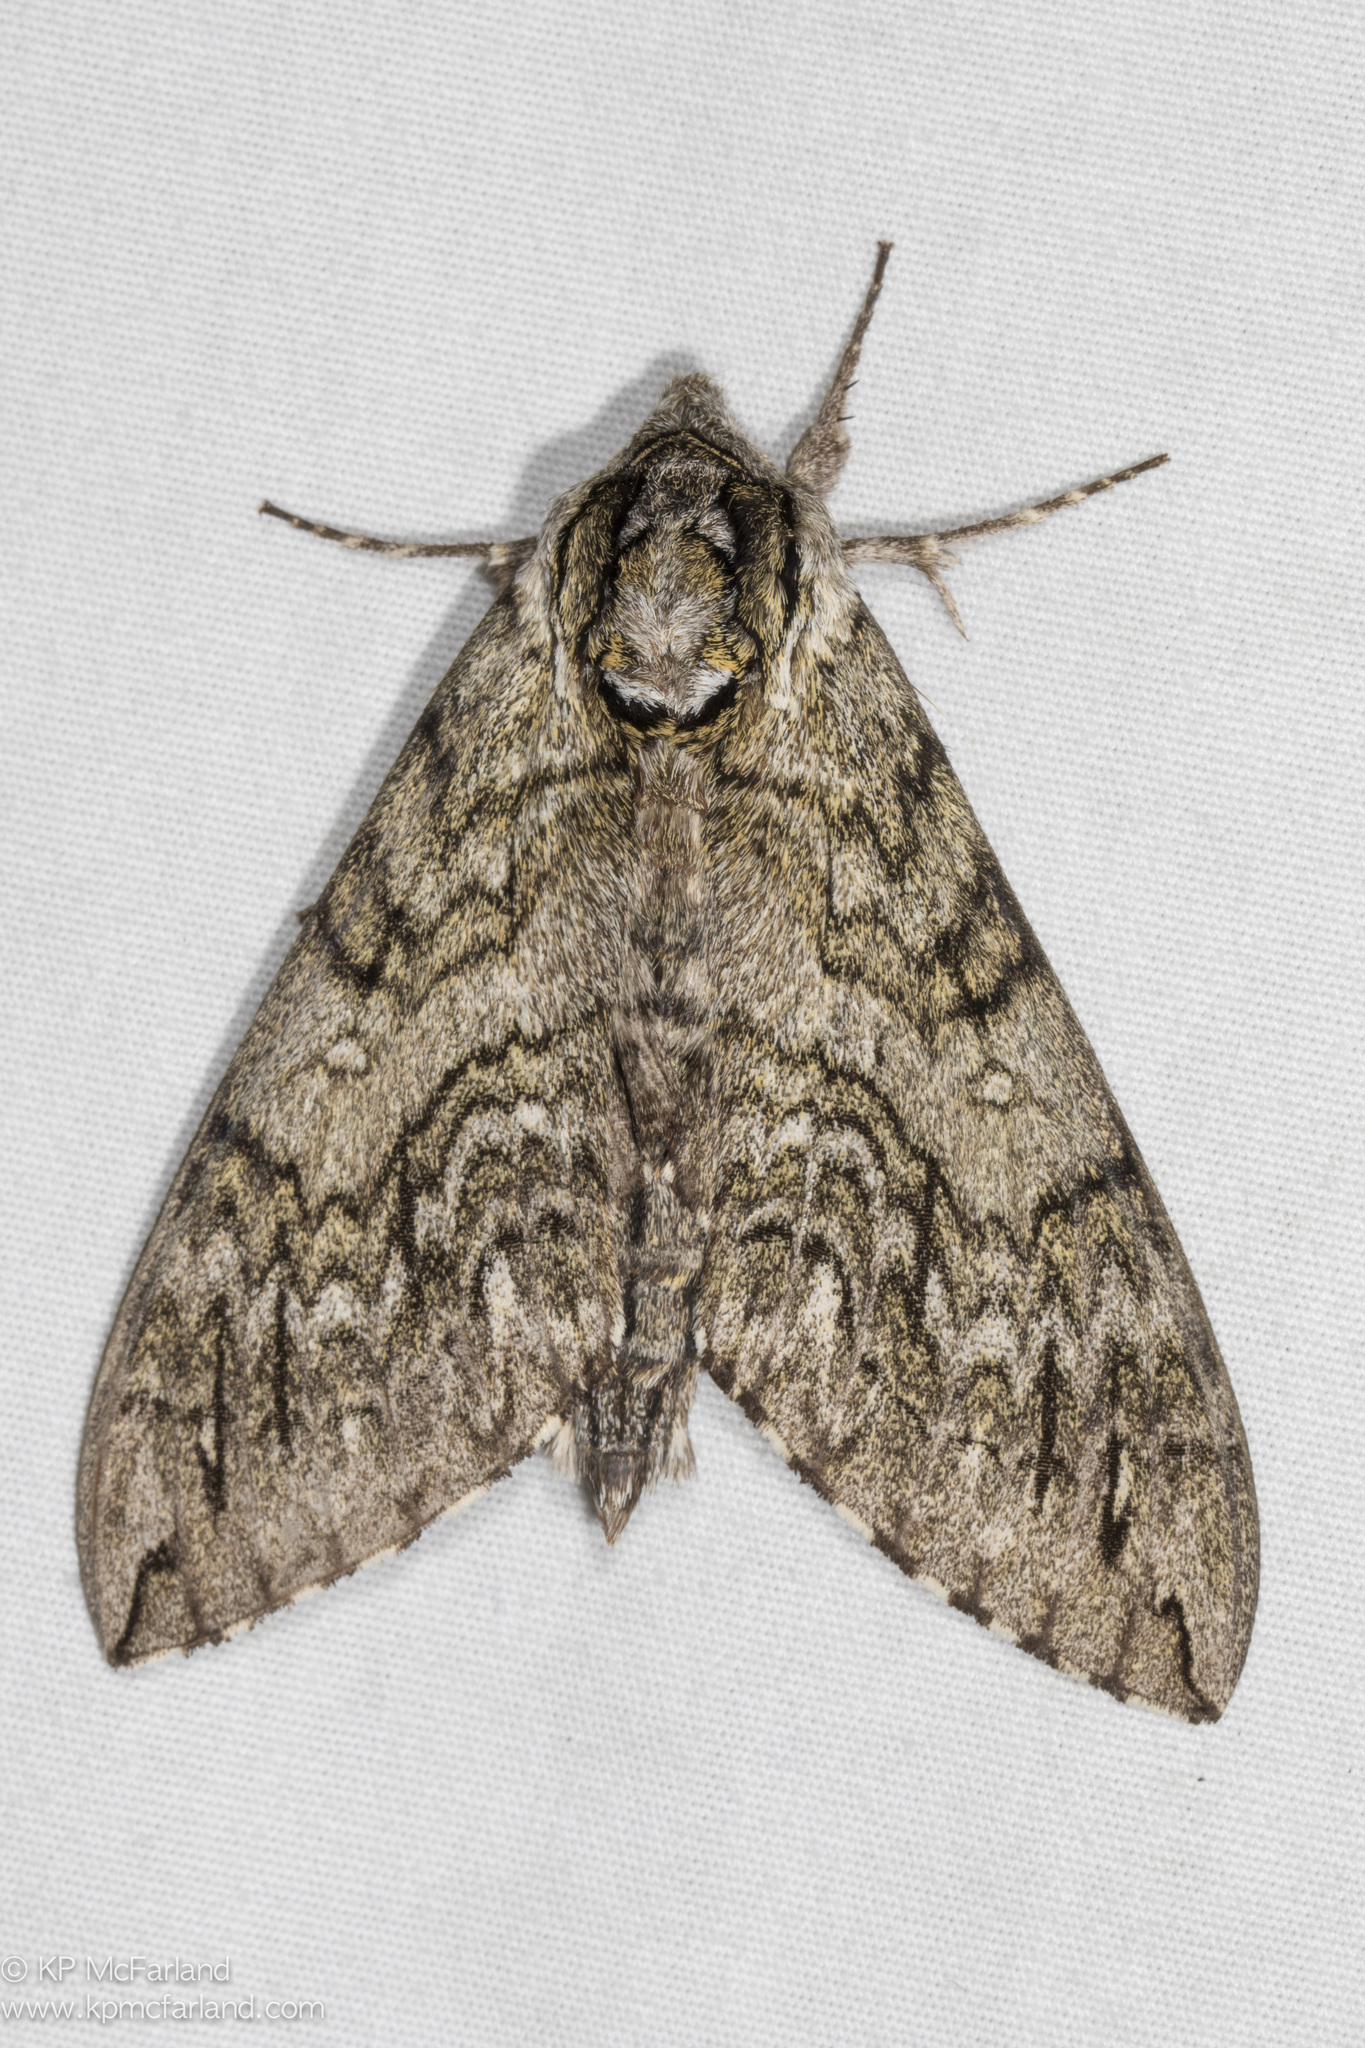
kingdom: Animalia
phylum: Arthropoda
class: Insecta
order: Lepidoptera
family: Sphingidae
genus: Ceratomia
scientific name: Ceratomia undulosa
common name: Waved sphinx
